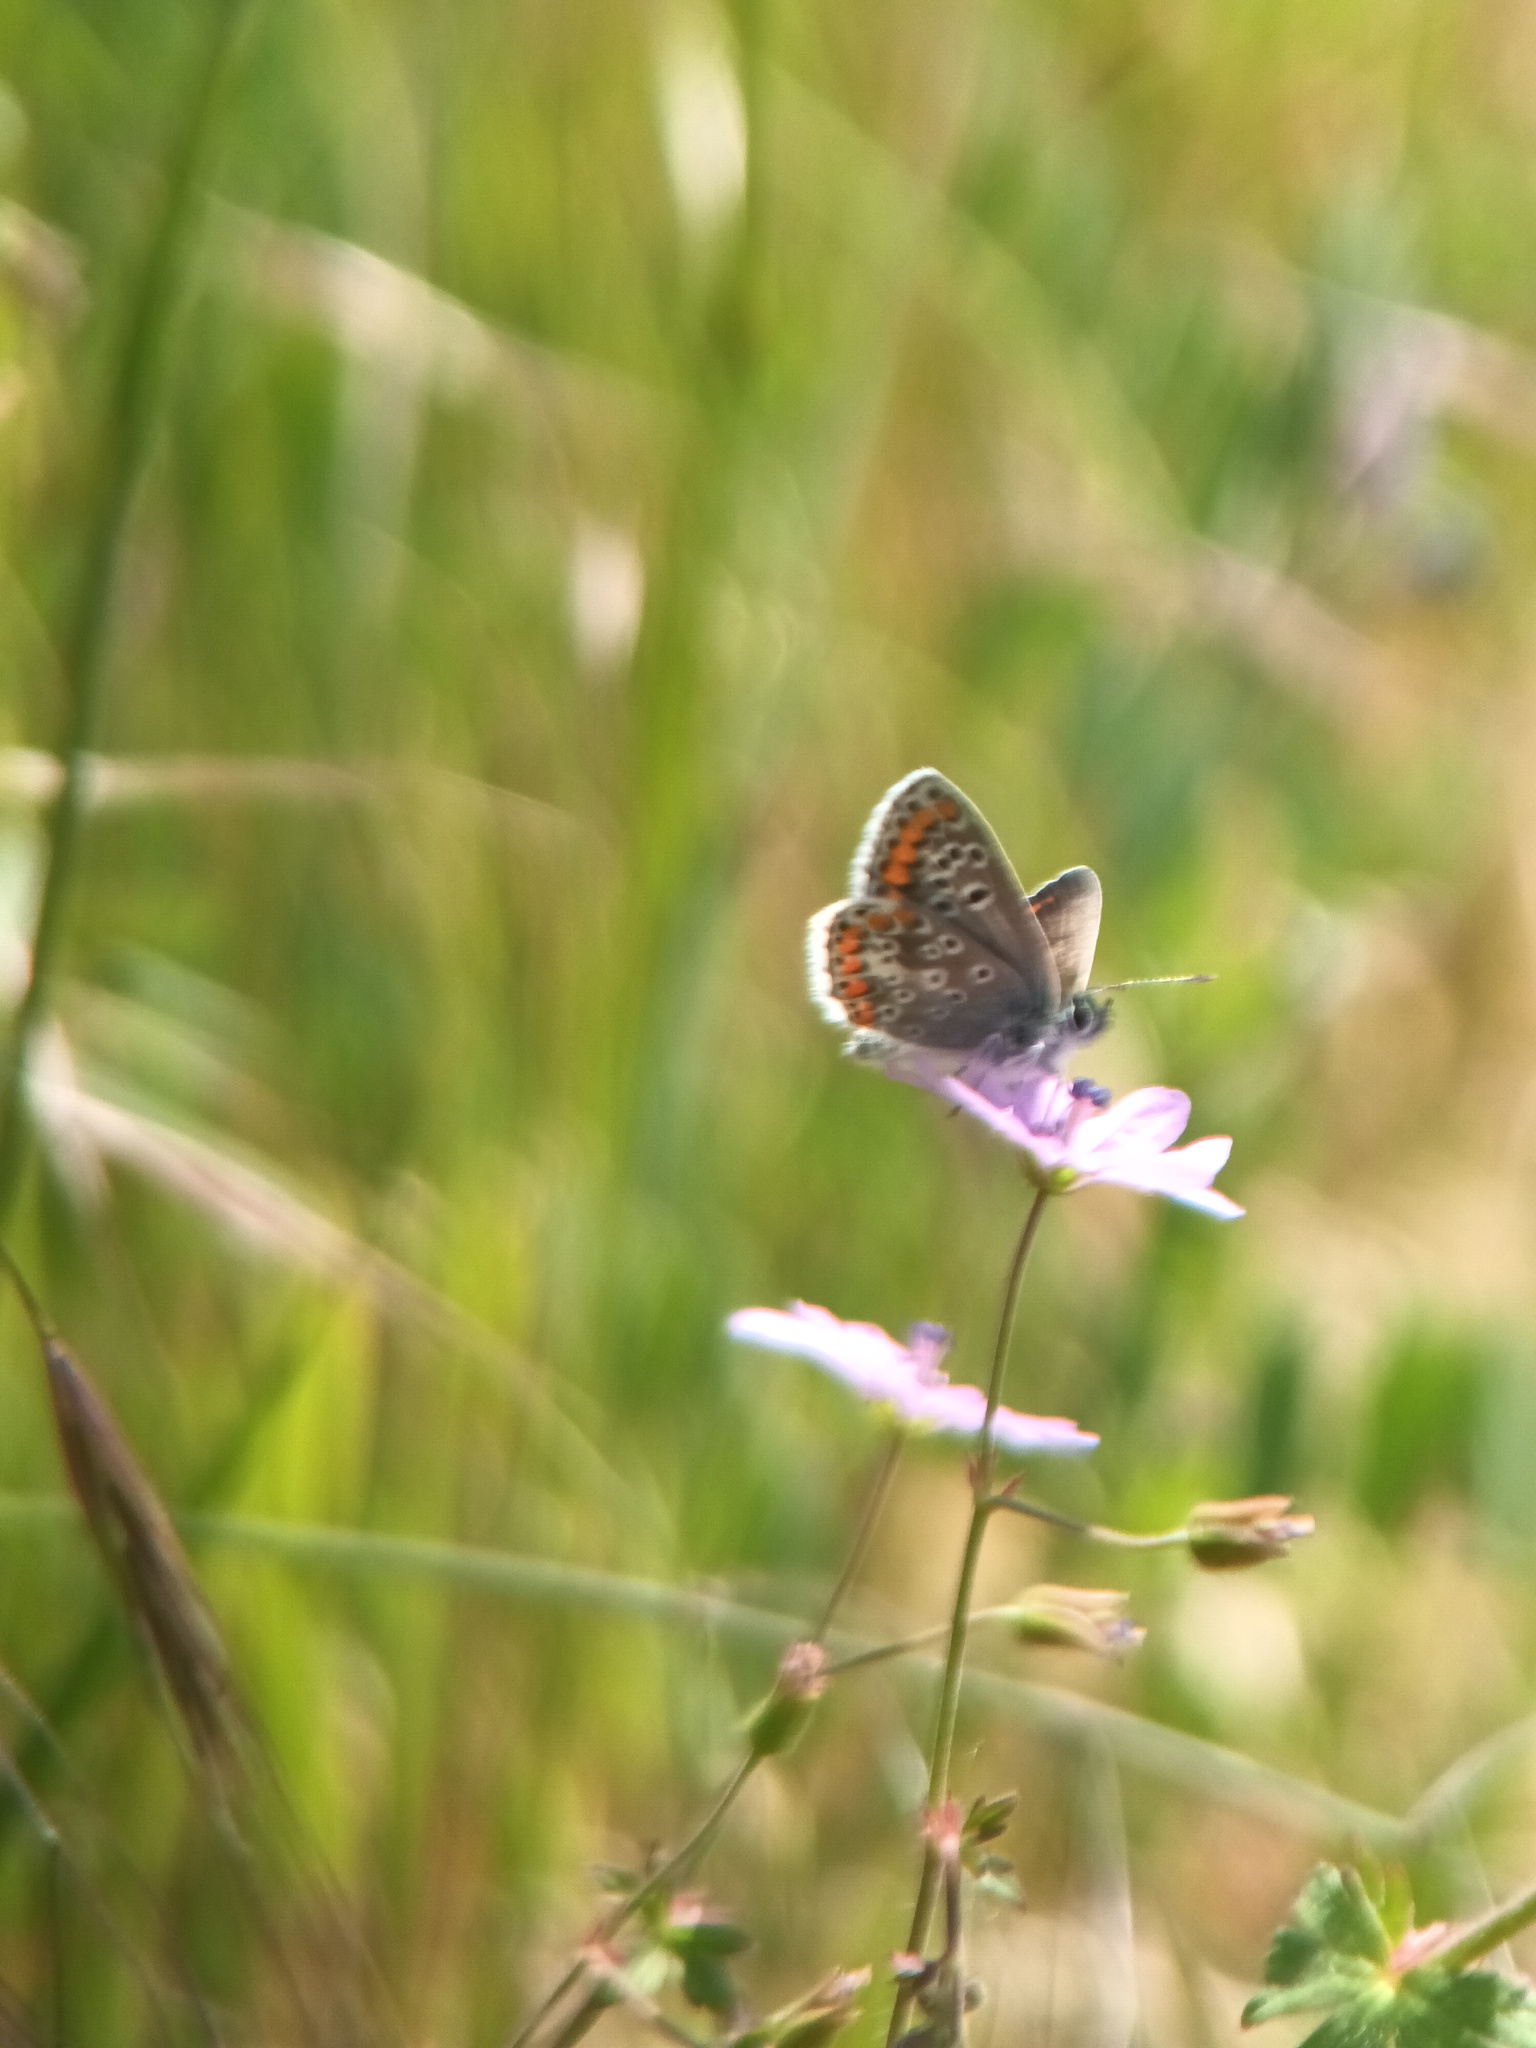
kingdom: Animalia
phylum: Arthropoda
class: Insecta
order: Lepidoptera
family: Lycaenidae
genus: Aricia
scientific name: Aricia agestis
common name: Brown argus
